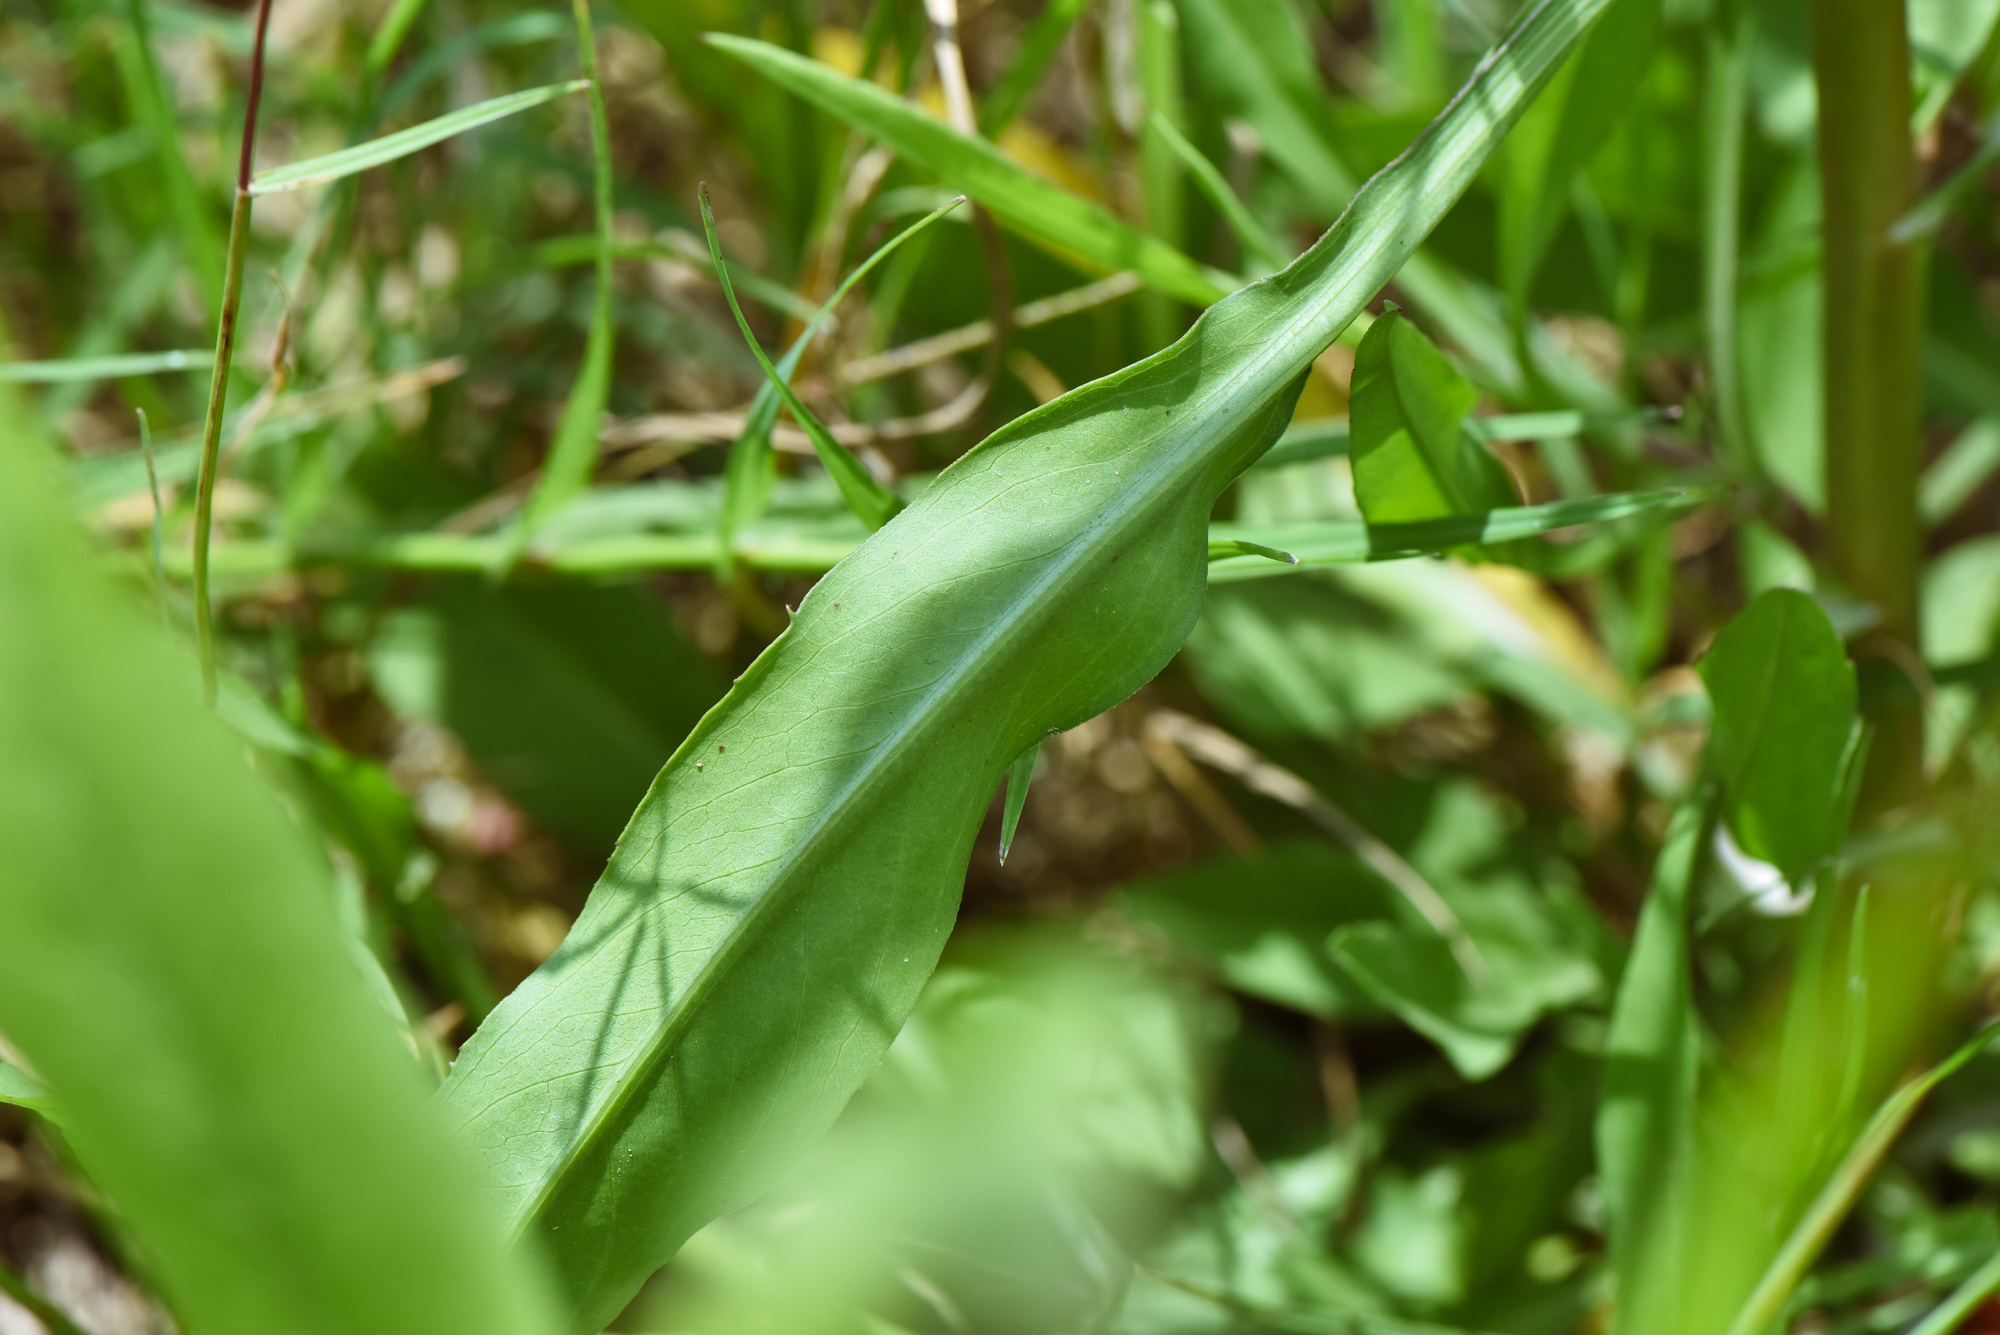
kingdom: Plantae
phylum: Tracheophyta
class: Magnoliopsida
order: Asterales
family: Asteraceae
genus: Symphyotrichum
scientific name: Symphyotrichum subulatum
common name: Annual saltmarsh aster
